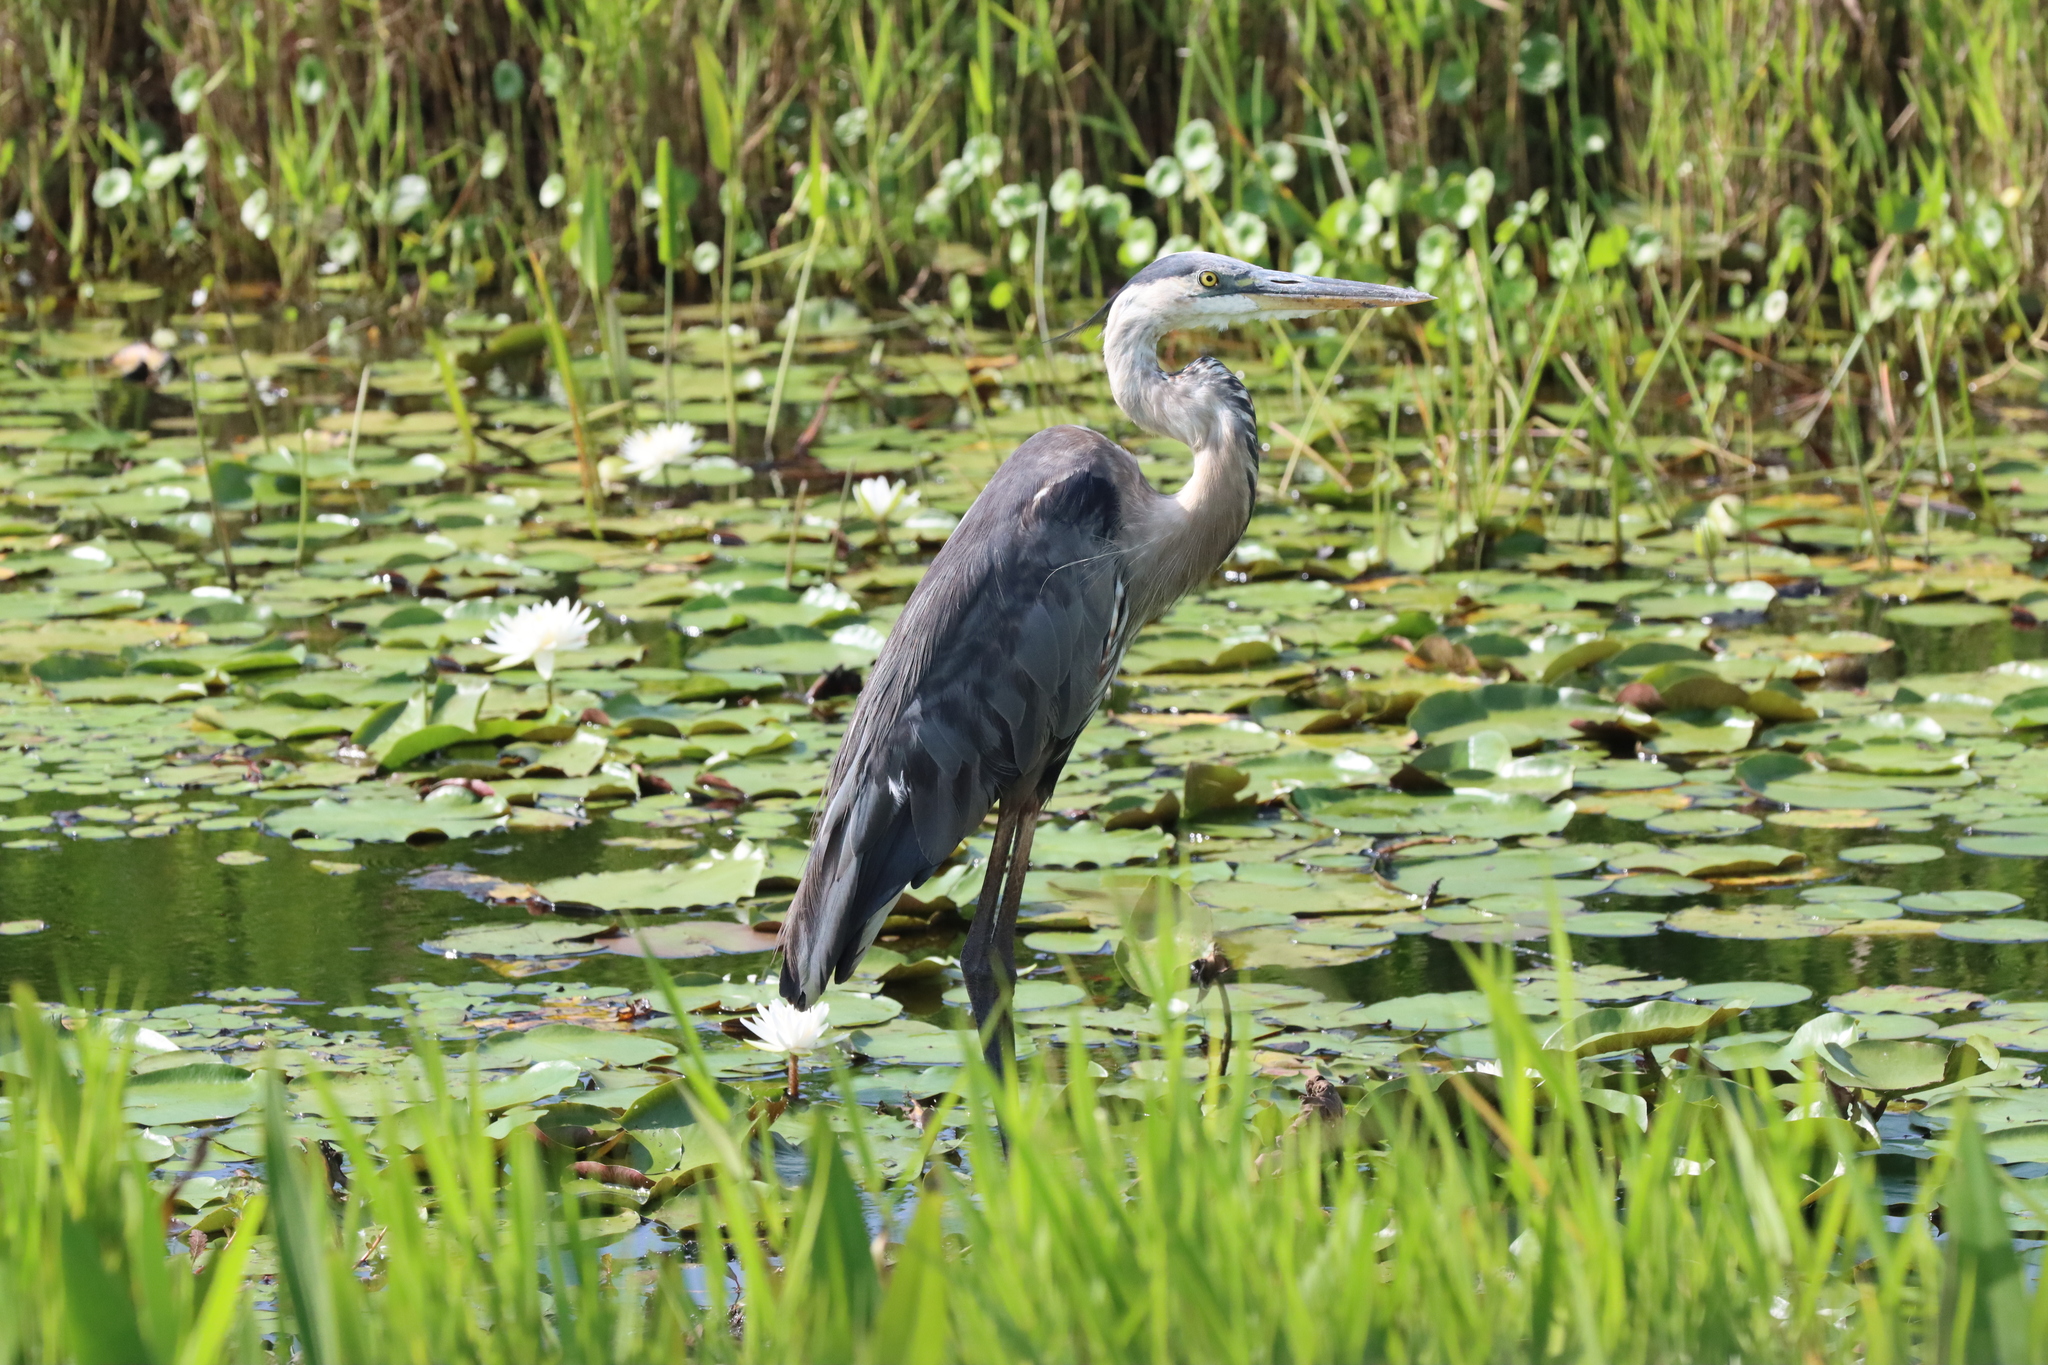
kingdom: Animalia
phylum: Chordata
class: Aves
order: Pelecaniformes
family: Ardeidae
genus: Ardea
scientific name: Ardea herodias
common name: Great blue heron
